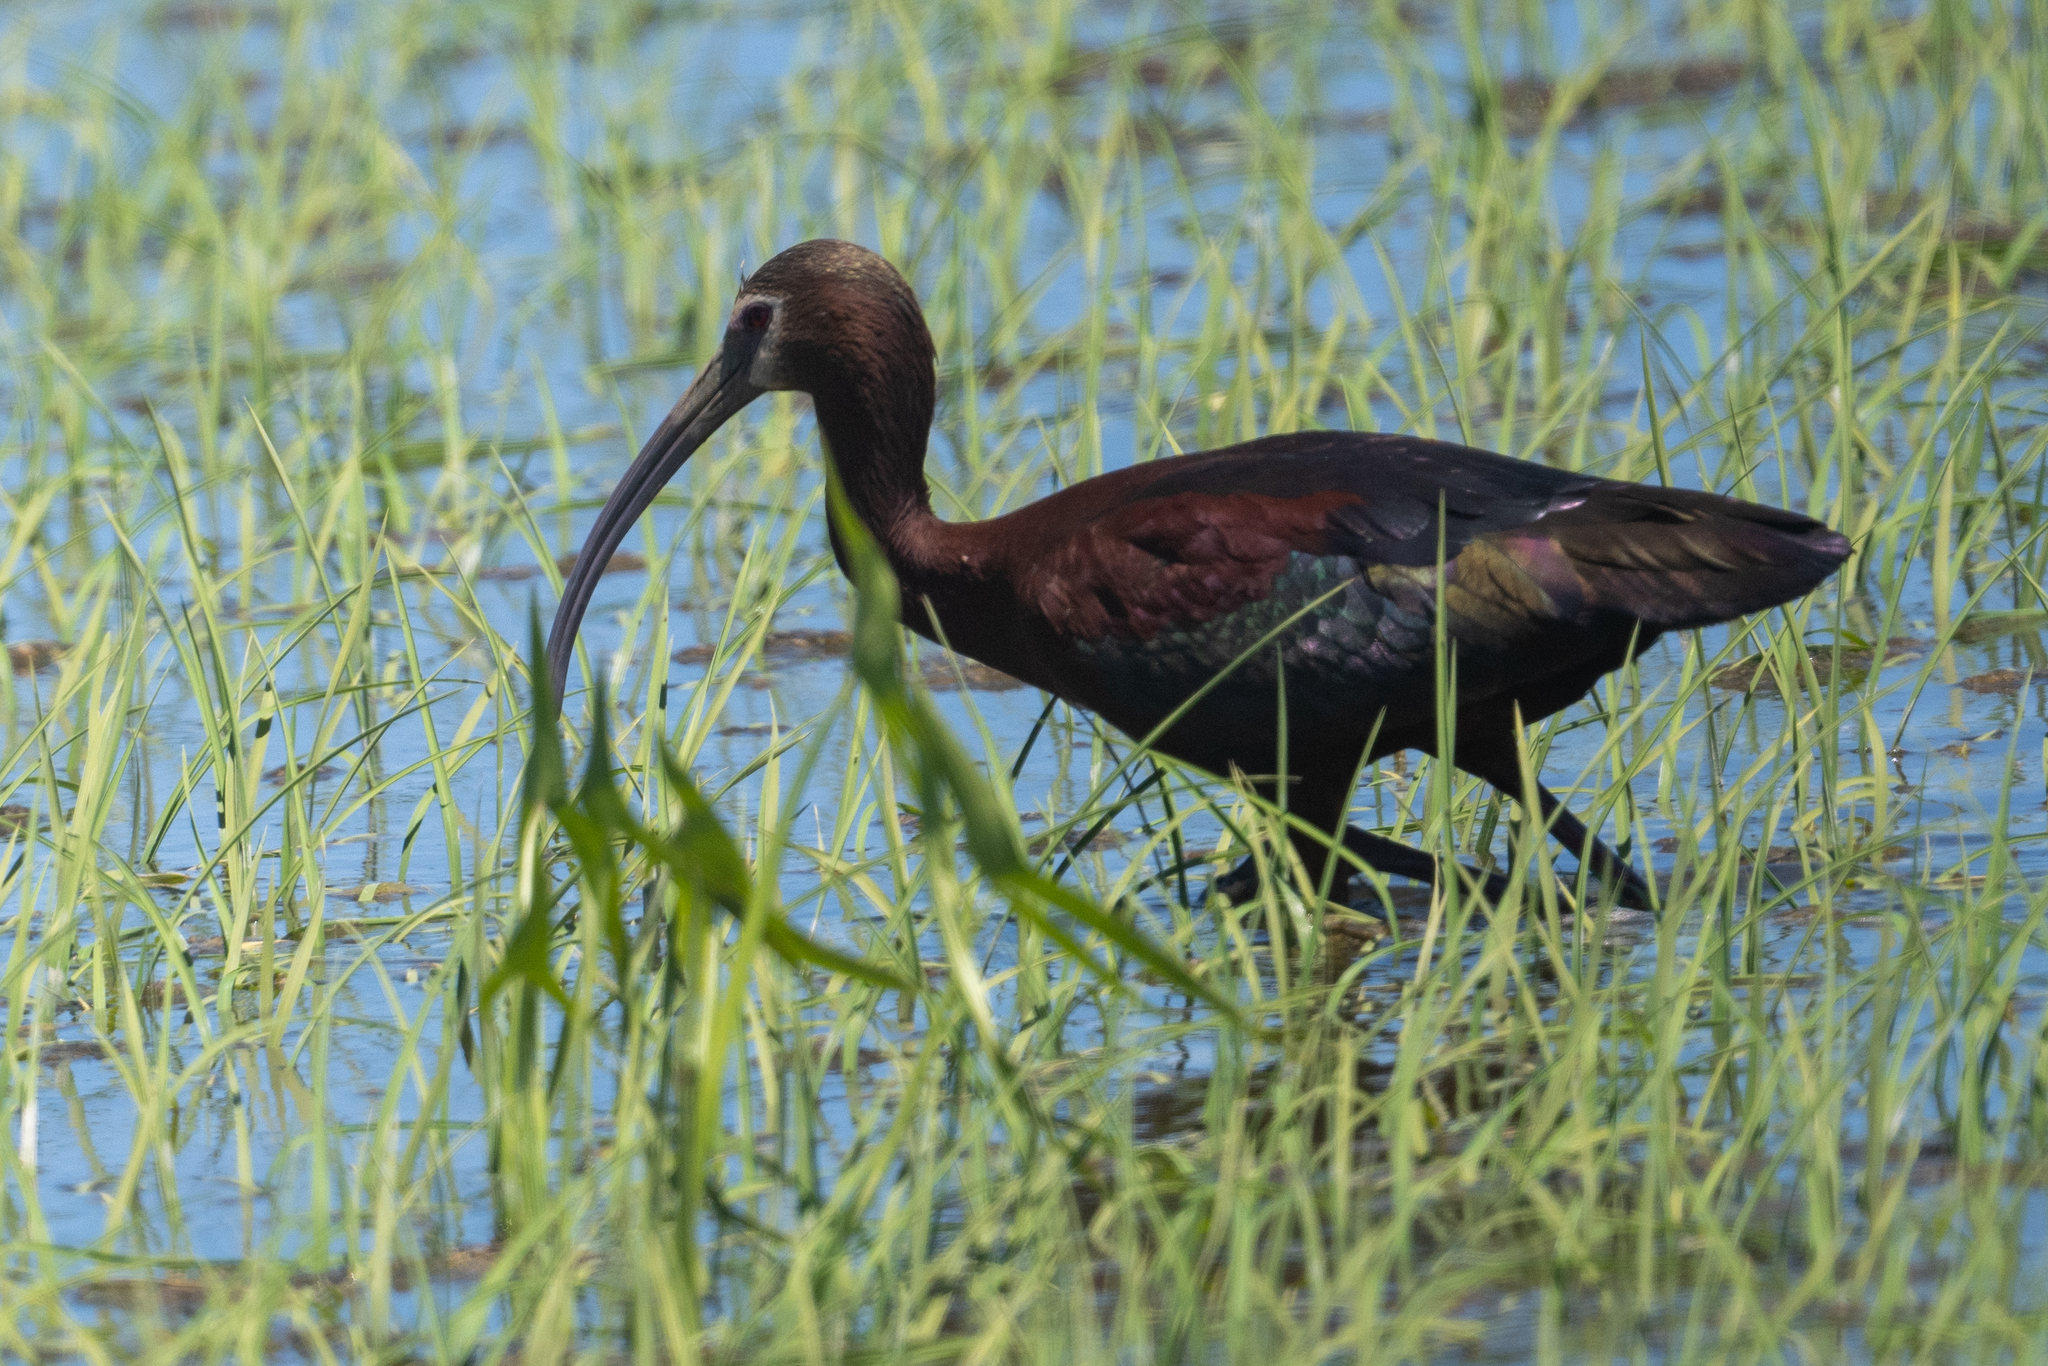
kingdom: Animalia
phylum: Chordata
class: Aves
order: Pelecaniformes
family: Threskiornithidae
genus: Plegadis
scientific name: Plegadis chihi
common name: White-faced ibis
